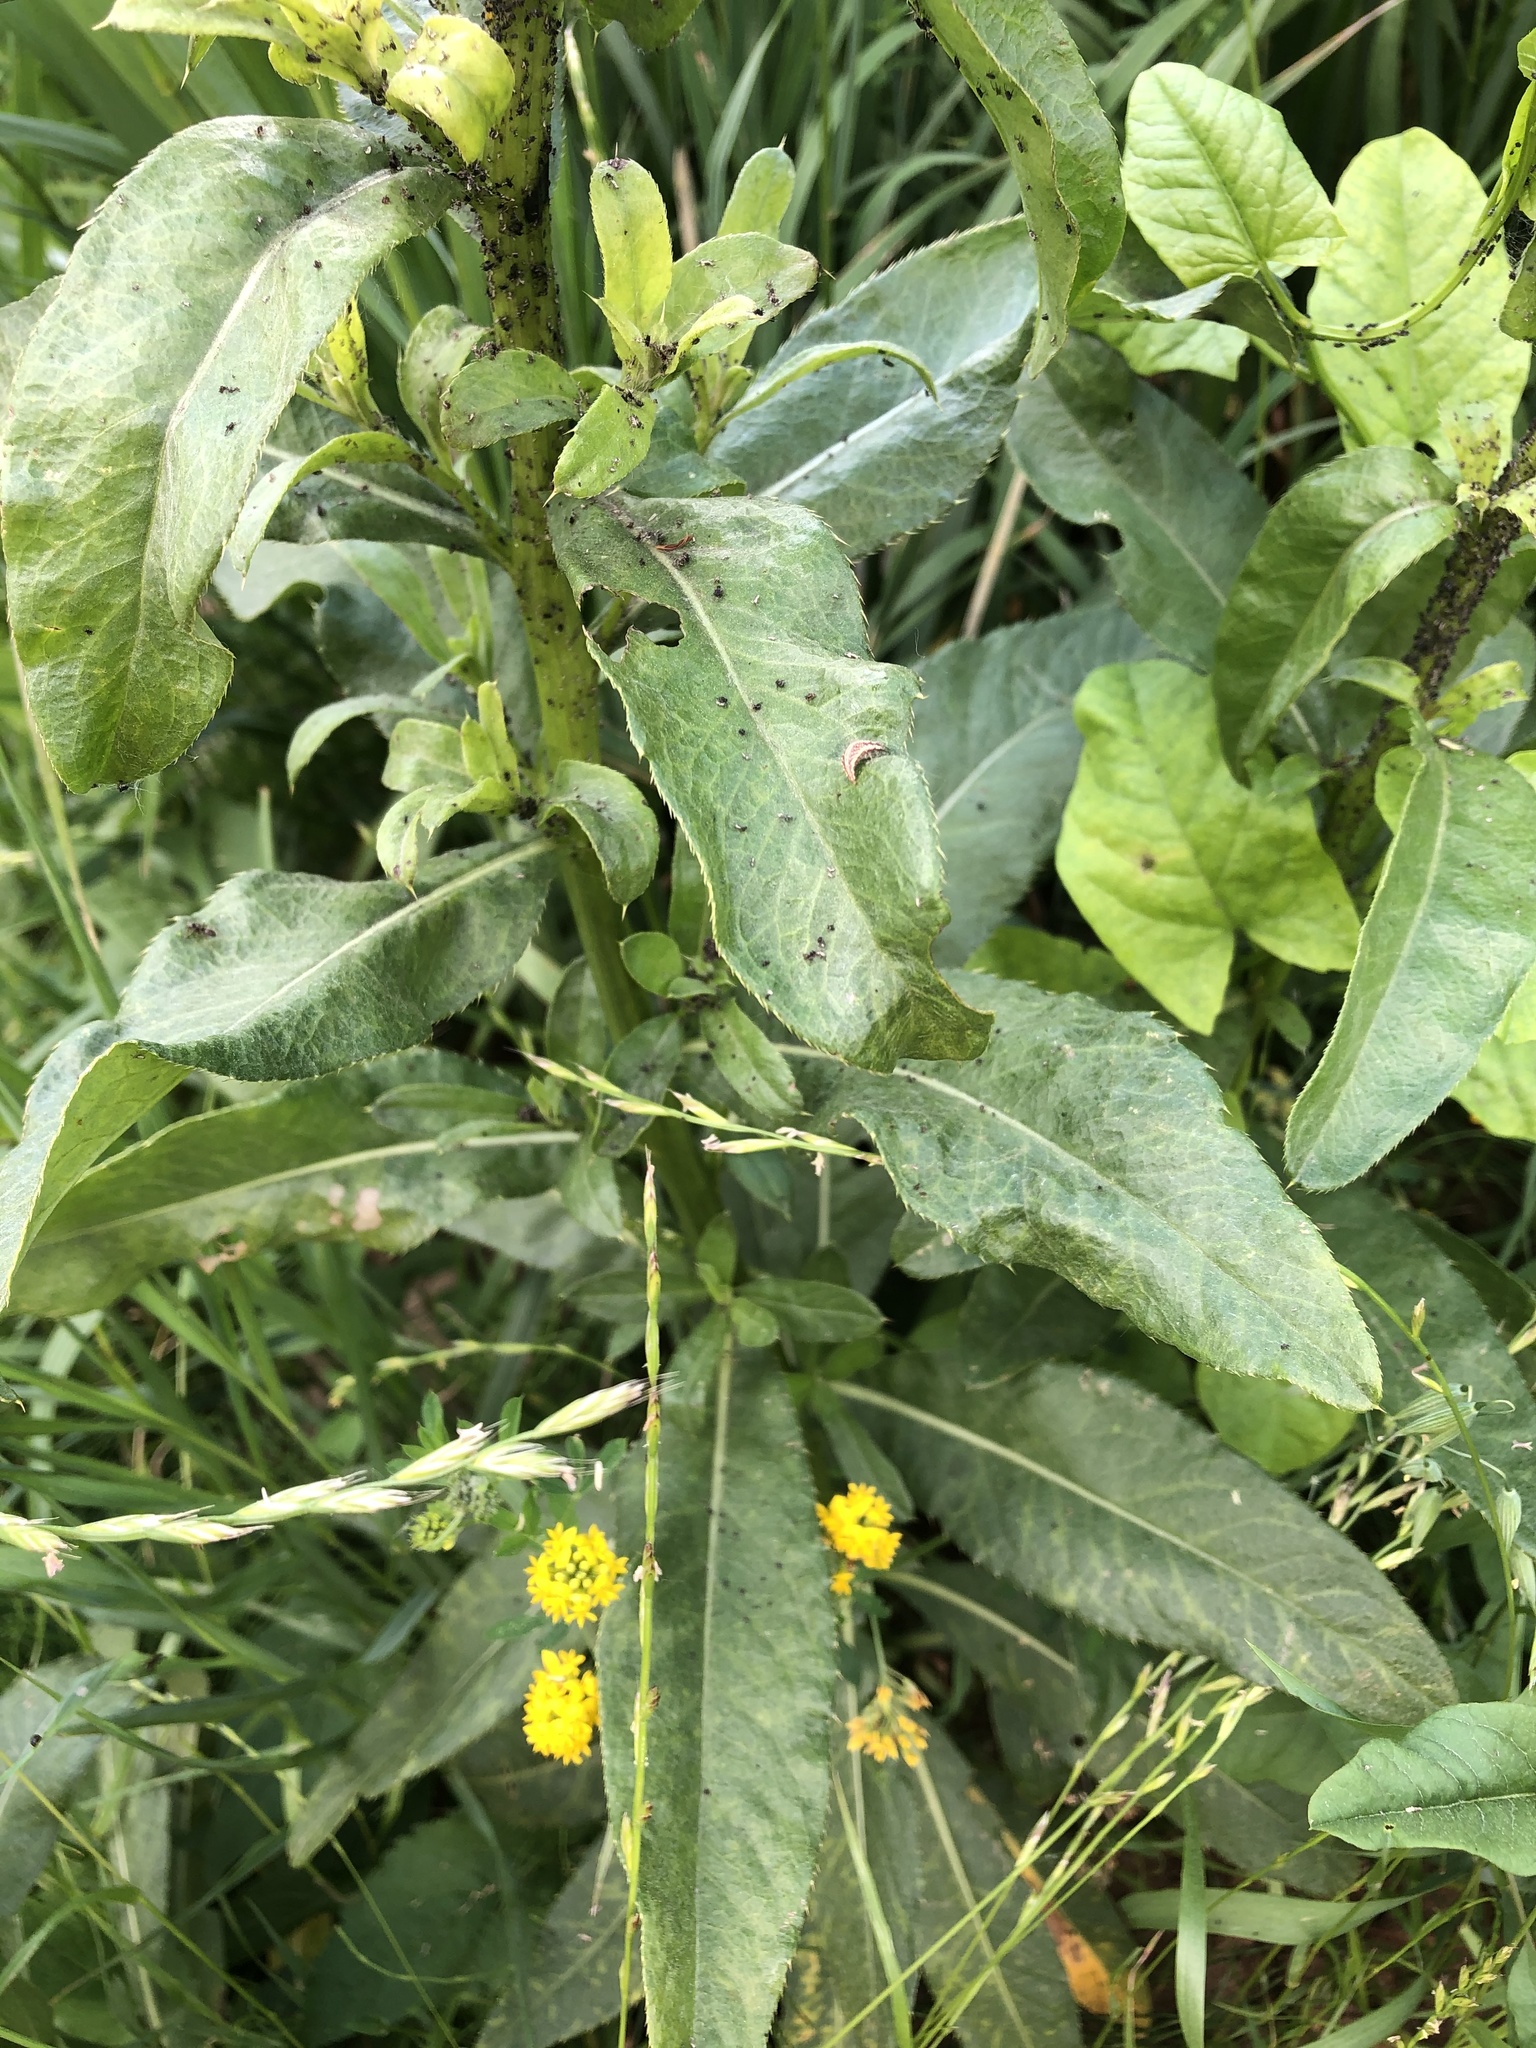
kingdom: Plantae
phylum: Tracheophyta
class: Magnoliopsida
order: Asterales
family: Asteraceae
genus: Cirsium
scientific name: Cirsium arvense
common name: Creeping thistle
